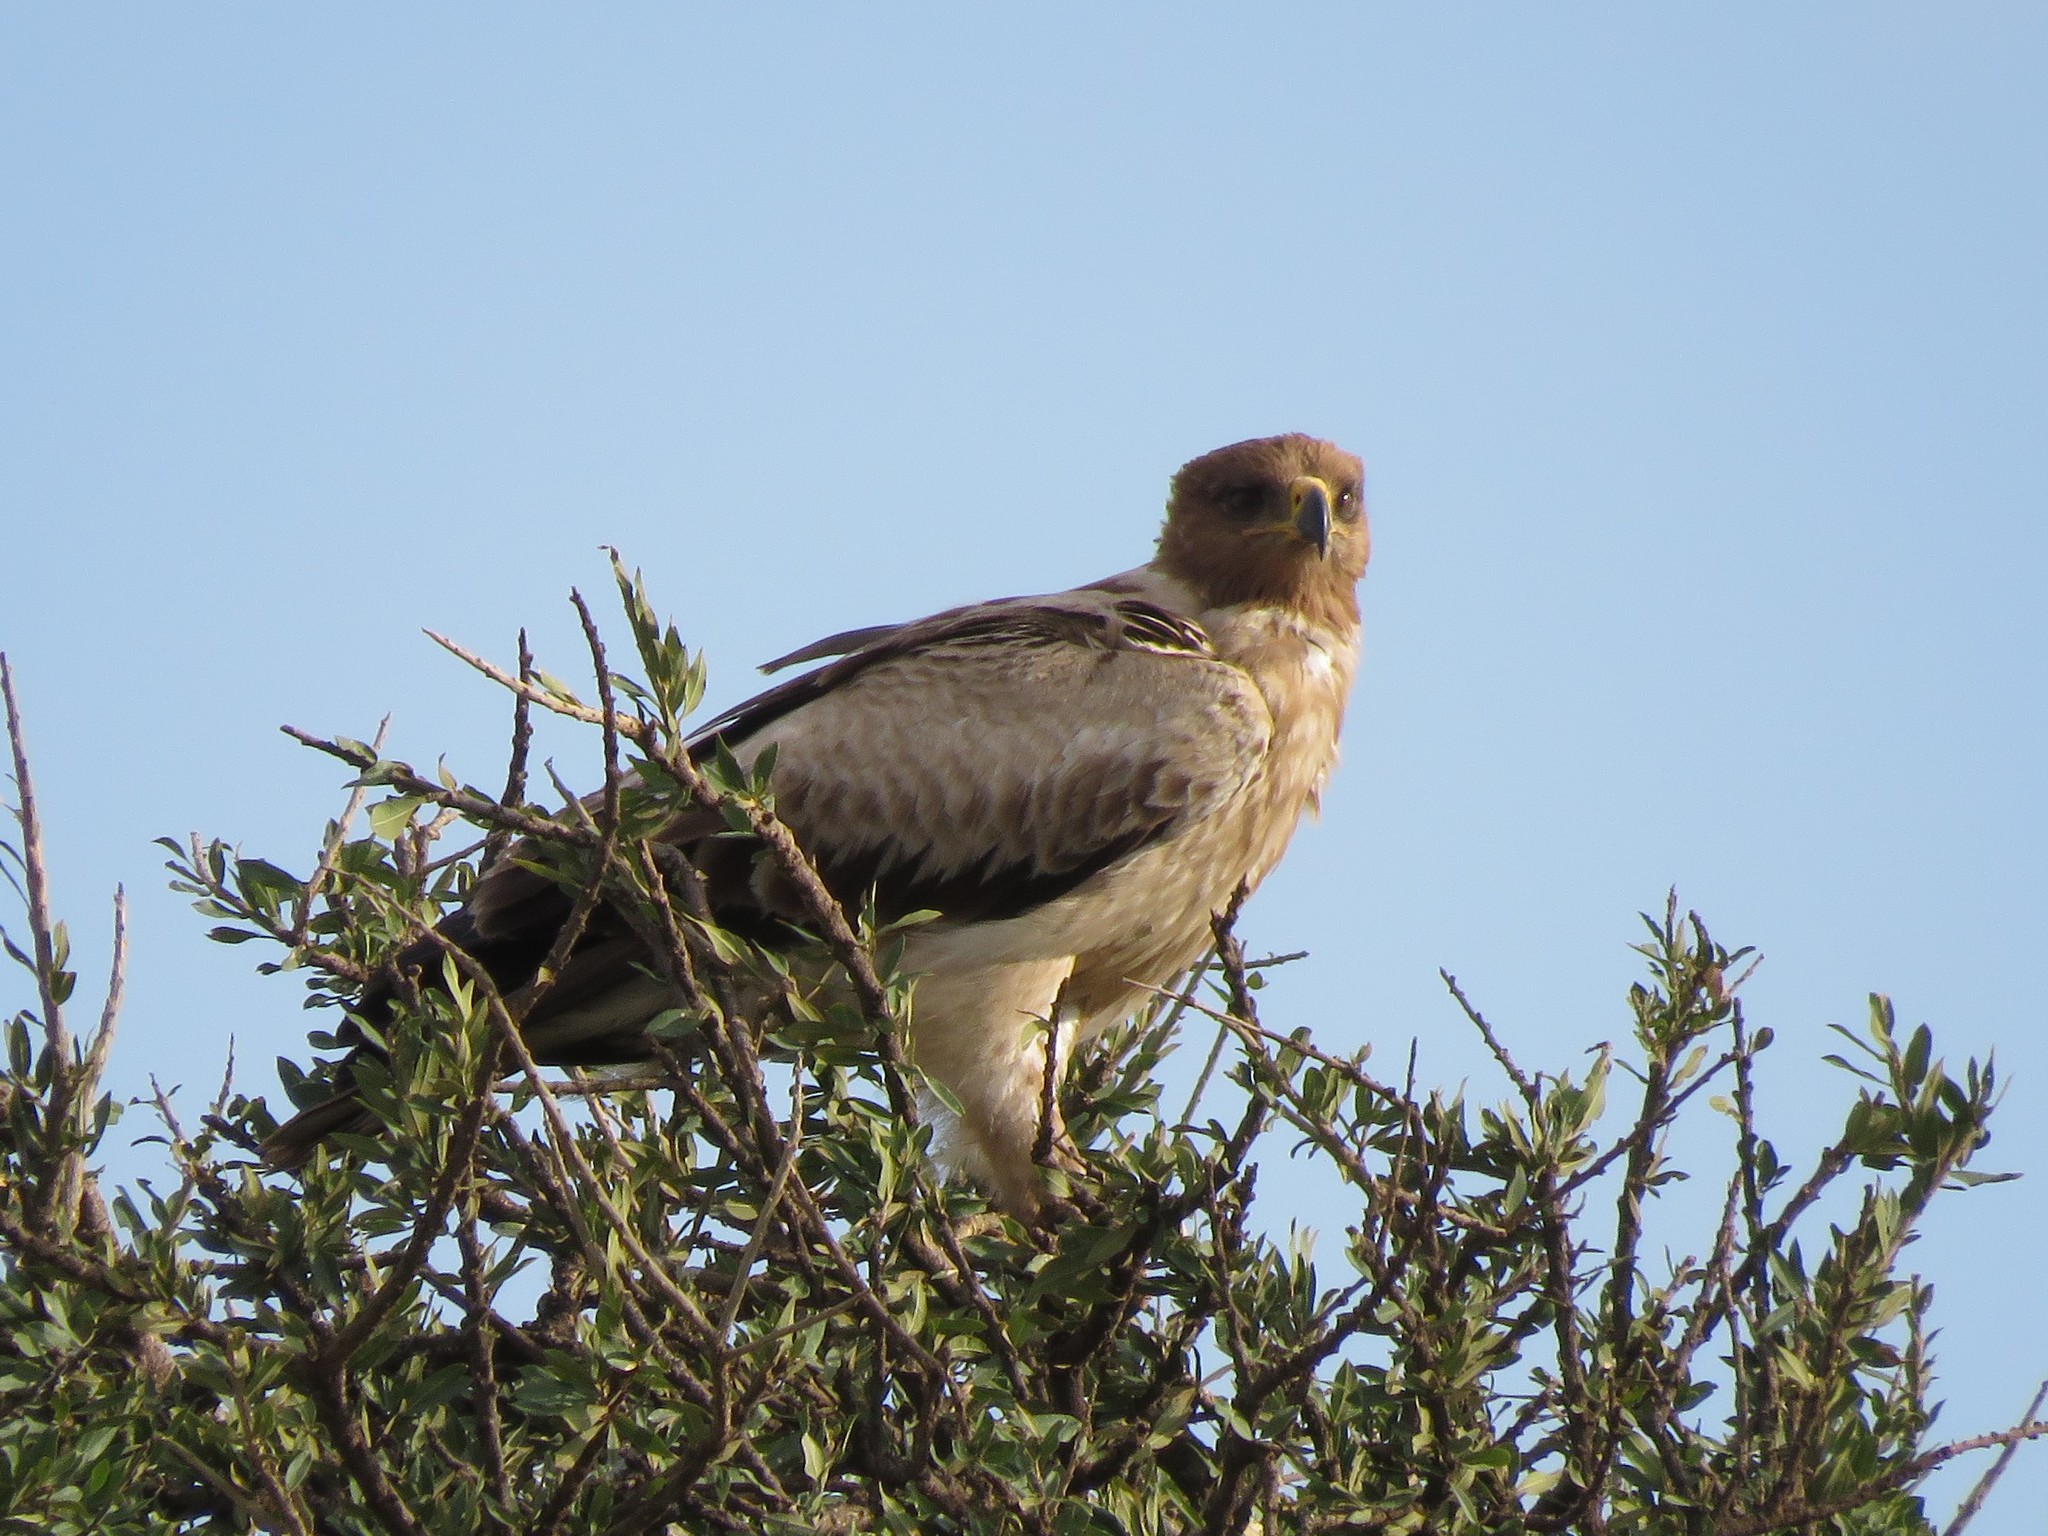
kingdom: Animalia
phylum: Chordata
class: Aves
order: Accipitriformes
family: Accipitridae
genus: Aquila
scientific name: Aquila rapax
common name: Tawny eagle
